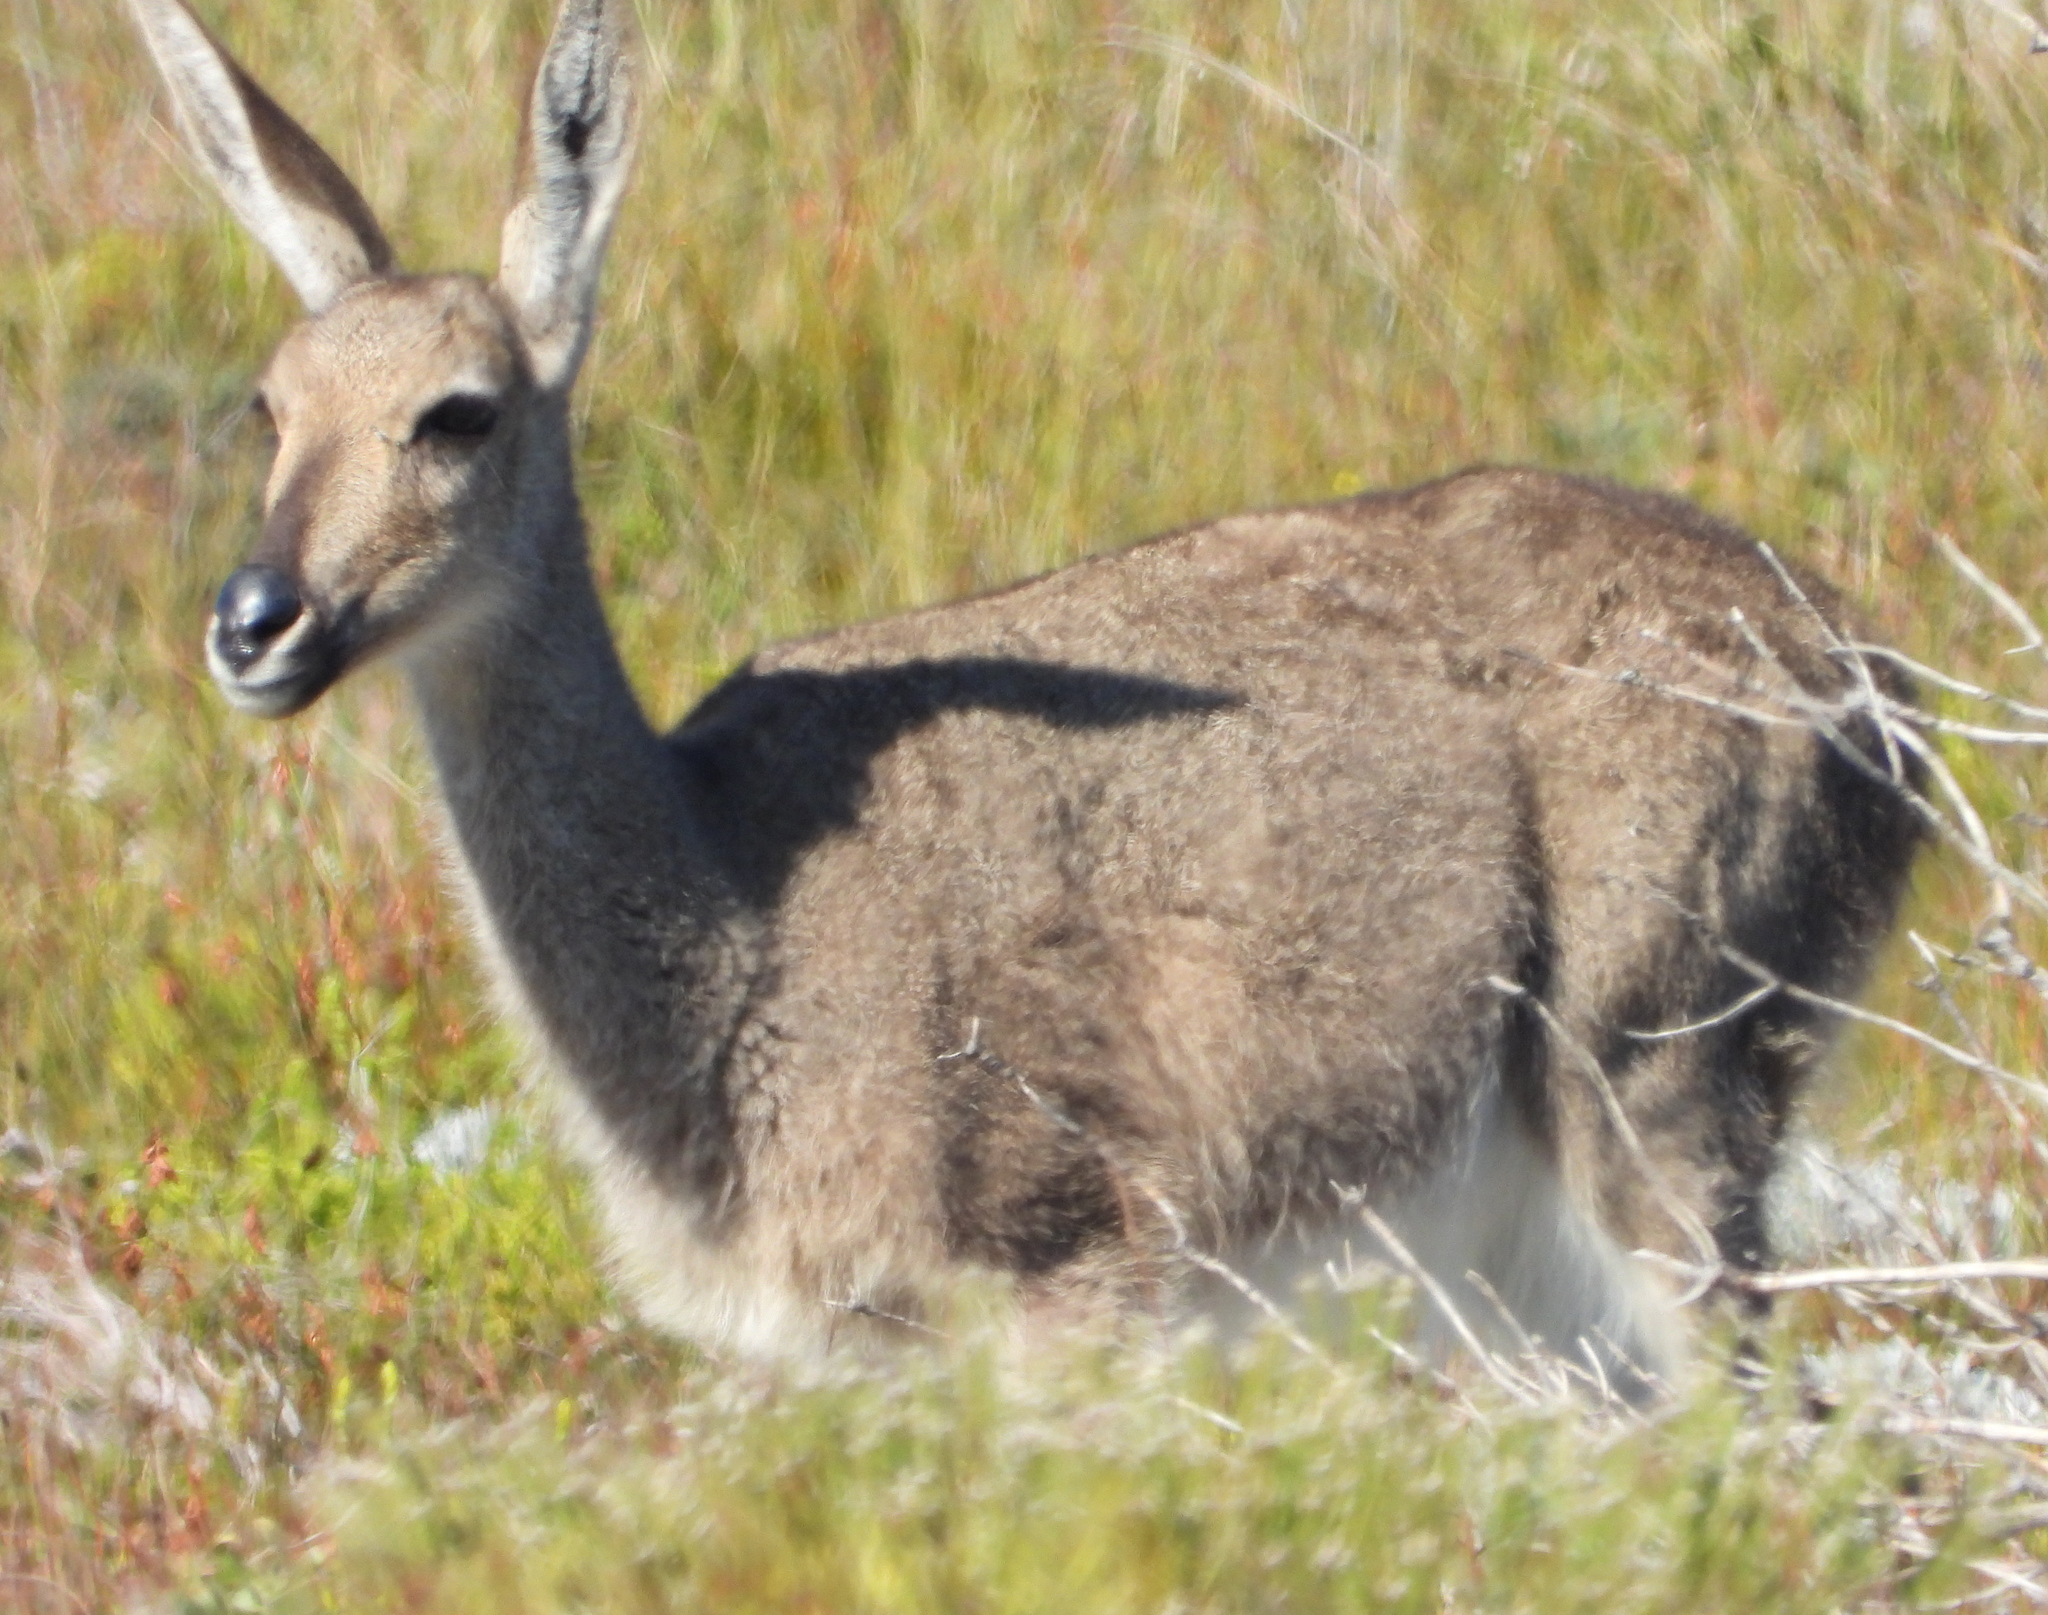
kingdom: Animalia
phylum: Chordata
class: Mammalia
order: Artiodactyla
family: Bovidae
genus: Pelea
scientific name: Pelea capreolus
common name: Common rhebok
